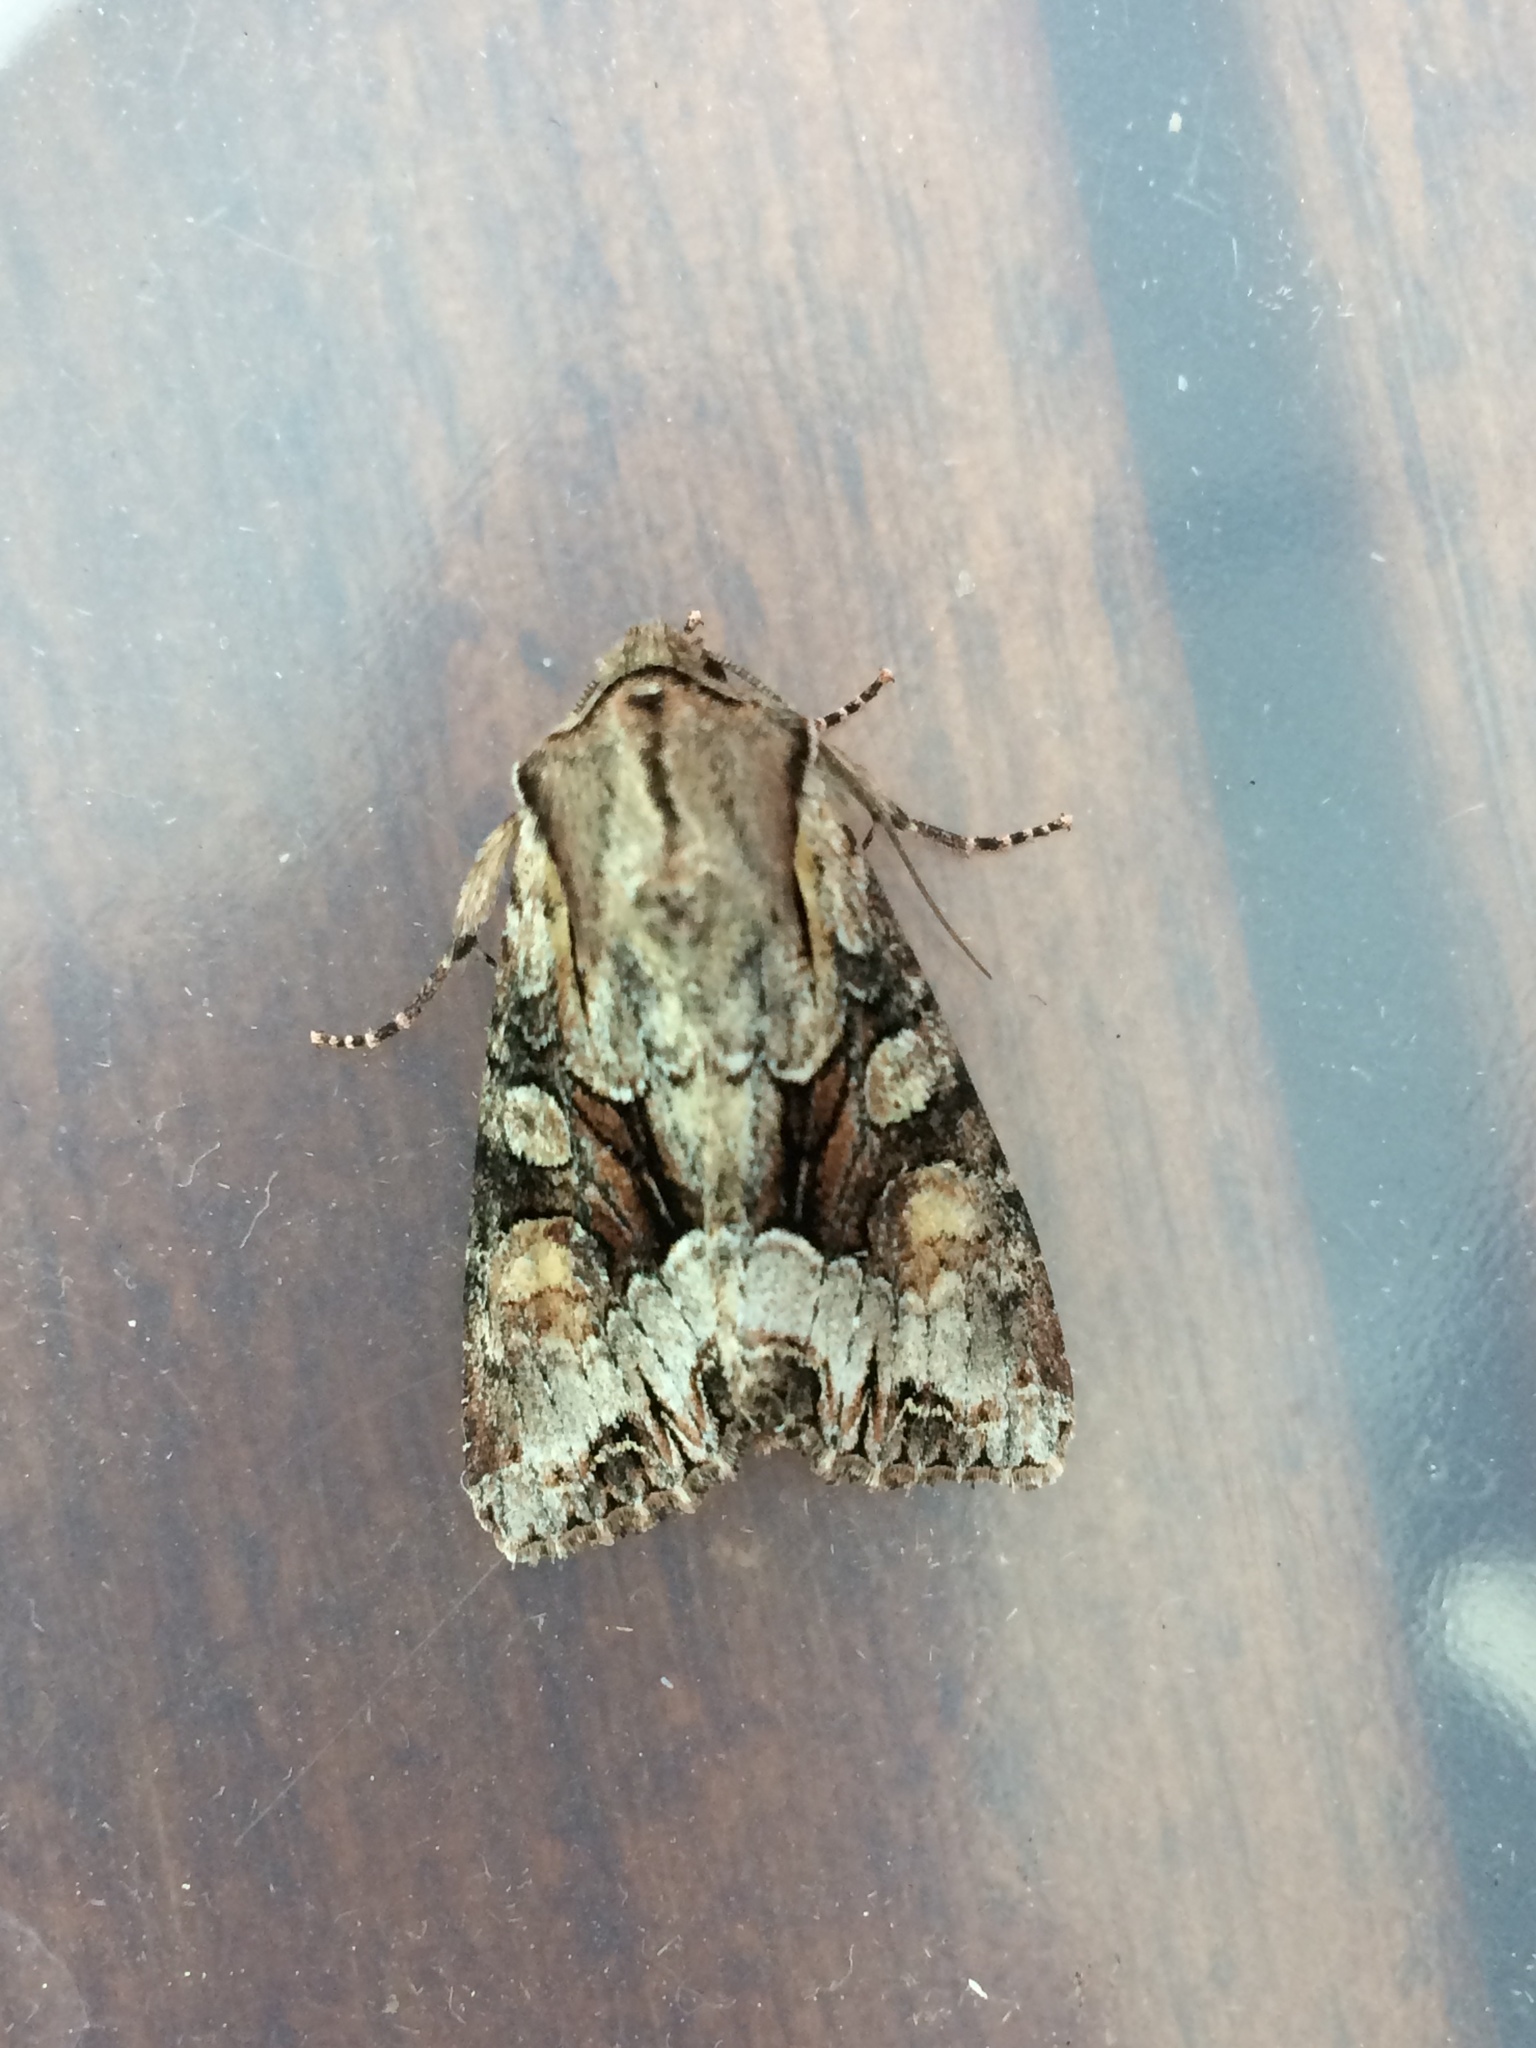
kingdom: Animalia
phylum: Arthropoda
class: Insecta
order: Lepidoptera
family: Noctuidae
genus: Lacanobia
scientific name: Lacanobia w-latinum
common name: Light brocade
